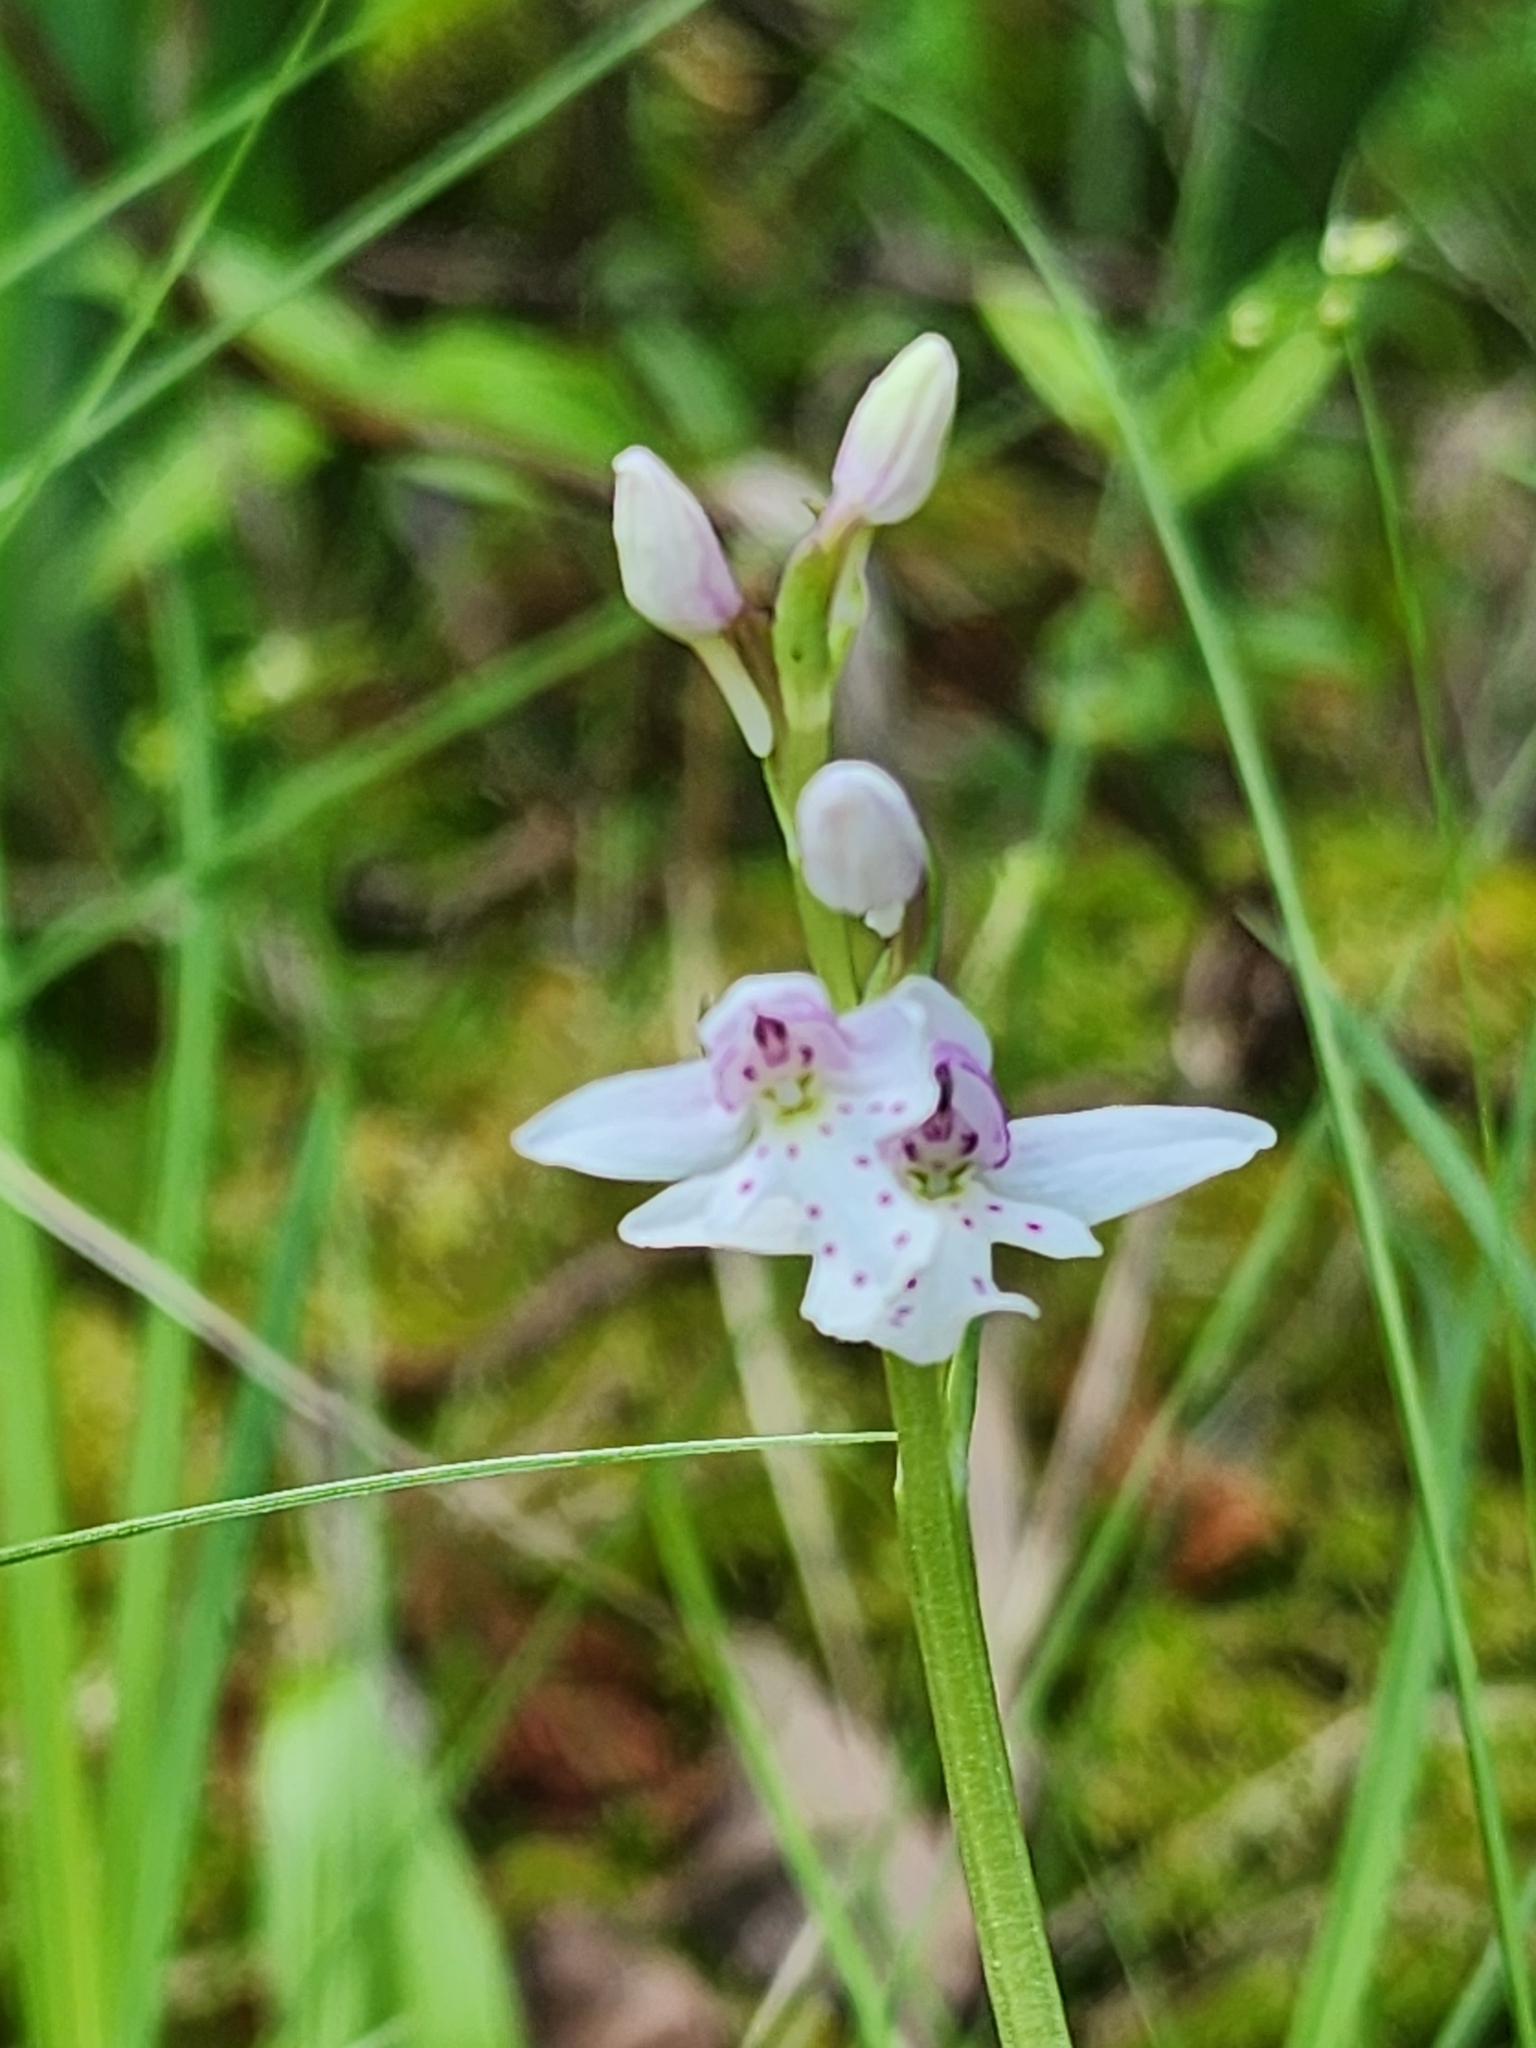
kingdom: Plantae
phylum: Tracheophyta
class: Liliopsida
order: Asparagales
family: Orchidaceae
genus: Galearis
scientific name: Galearis rotundifolia
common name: One-leaved orchis
